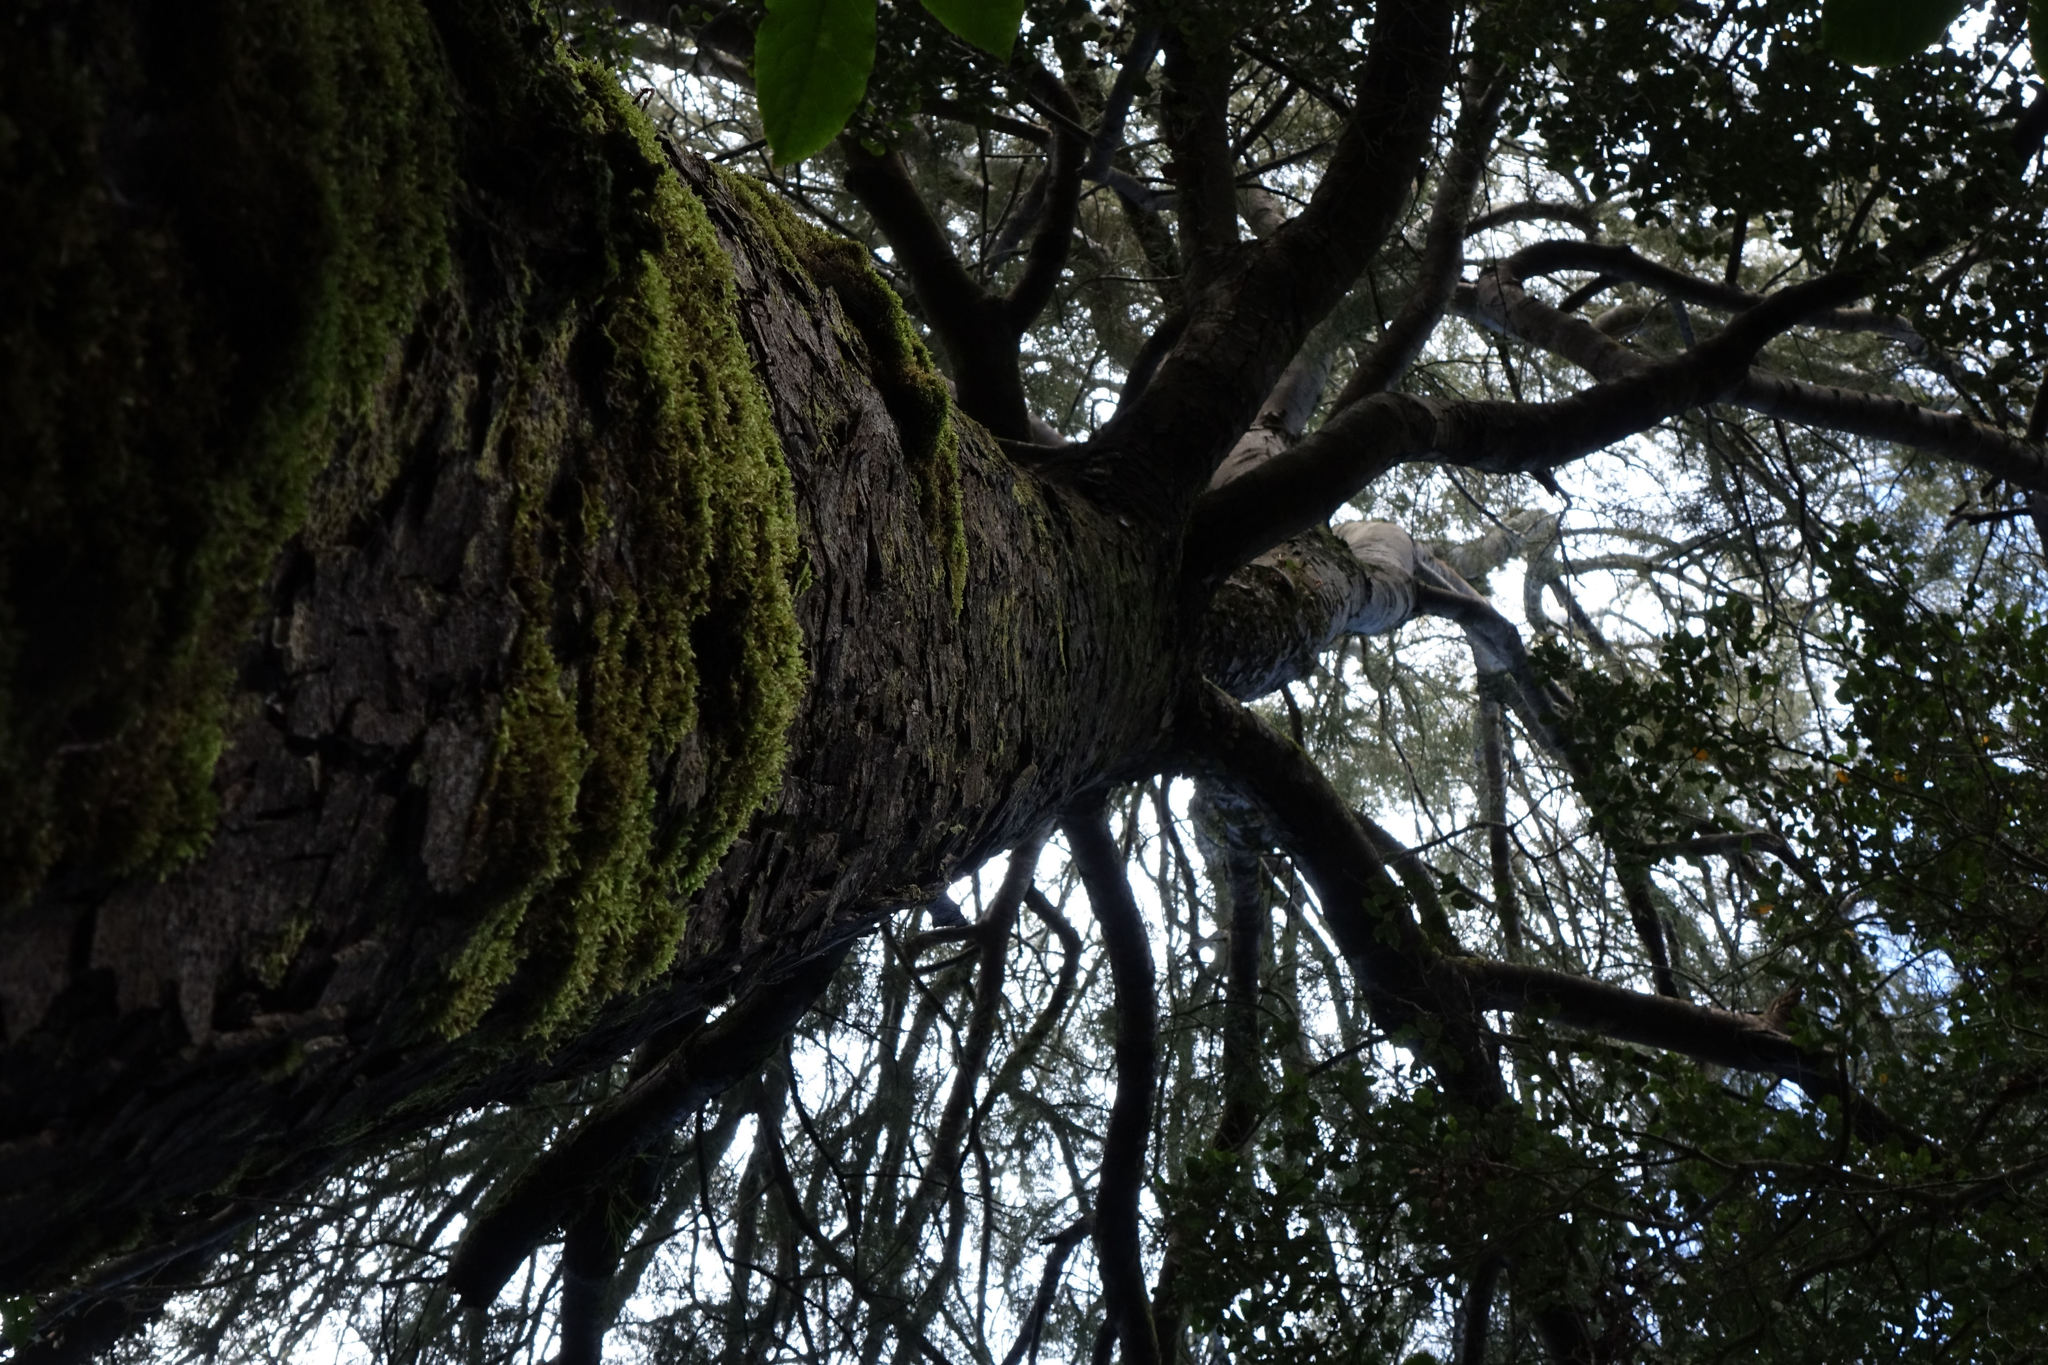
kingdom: Plantae
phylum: Tracheophyta
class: Pinopsida
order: Pinales
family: Podocarpaceae
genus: Dacrycarpus
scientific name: Dacrycarpus dacrydioides
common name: White pine
